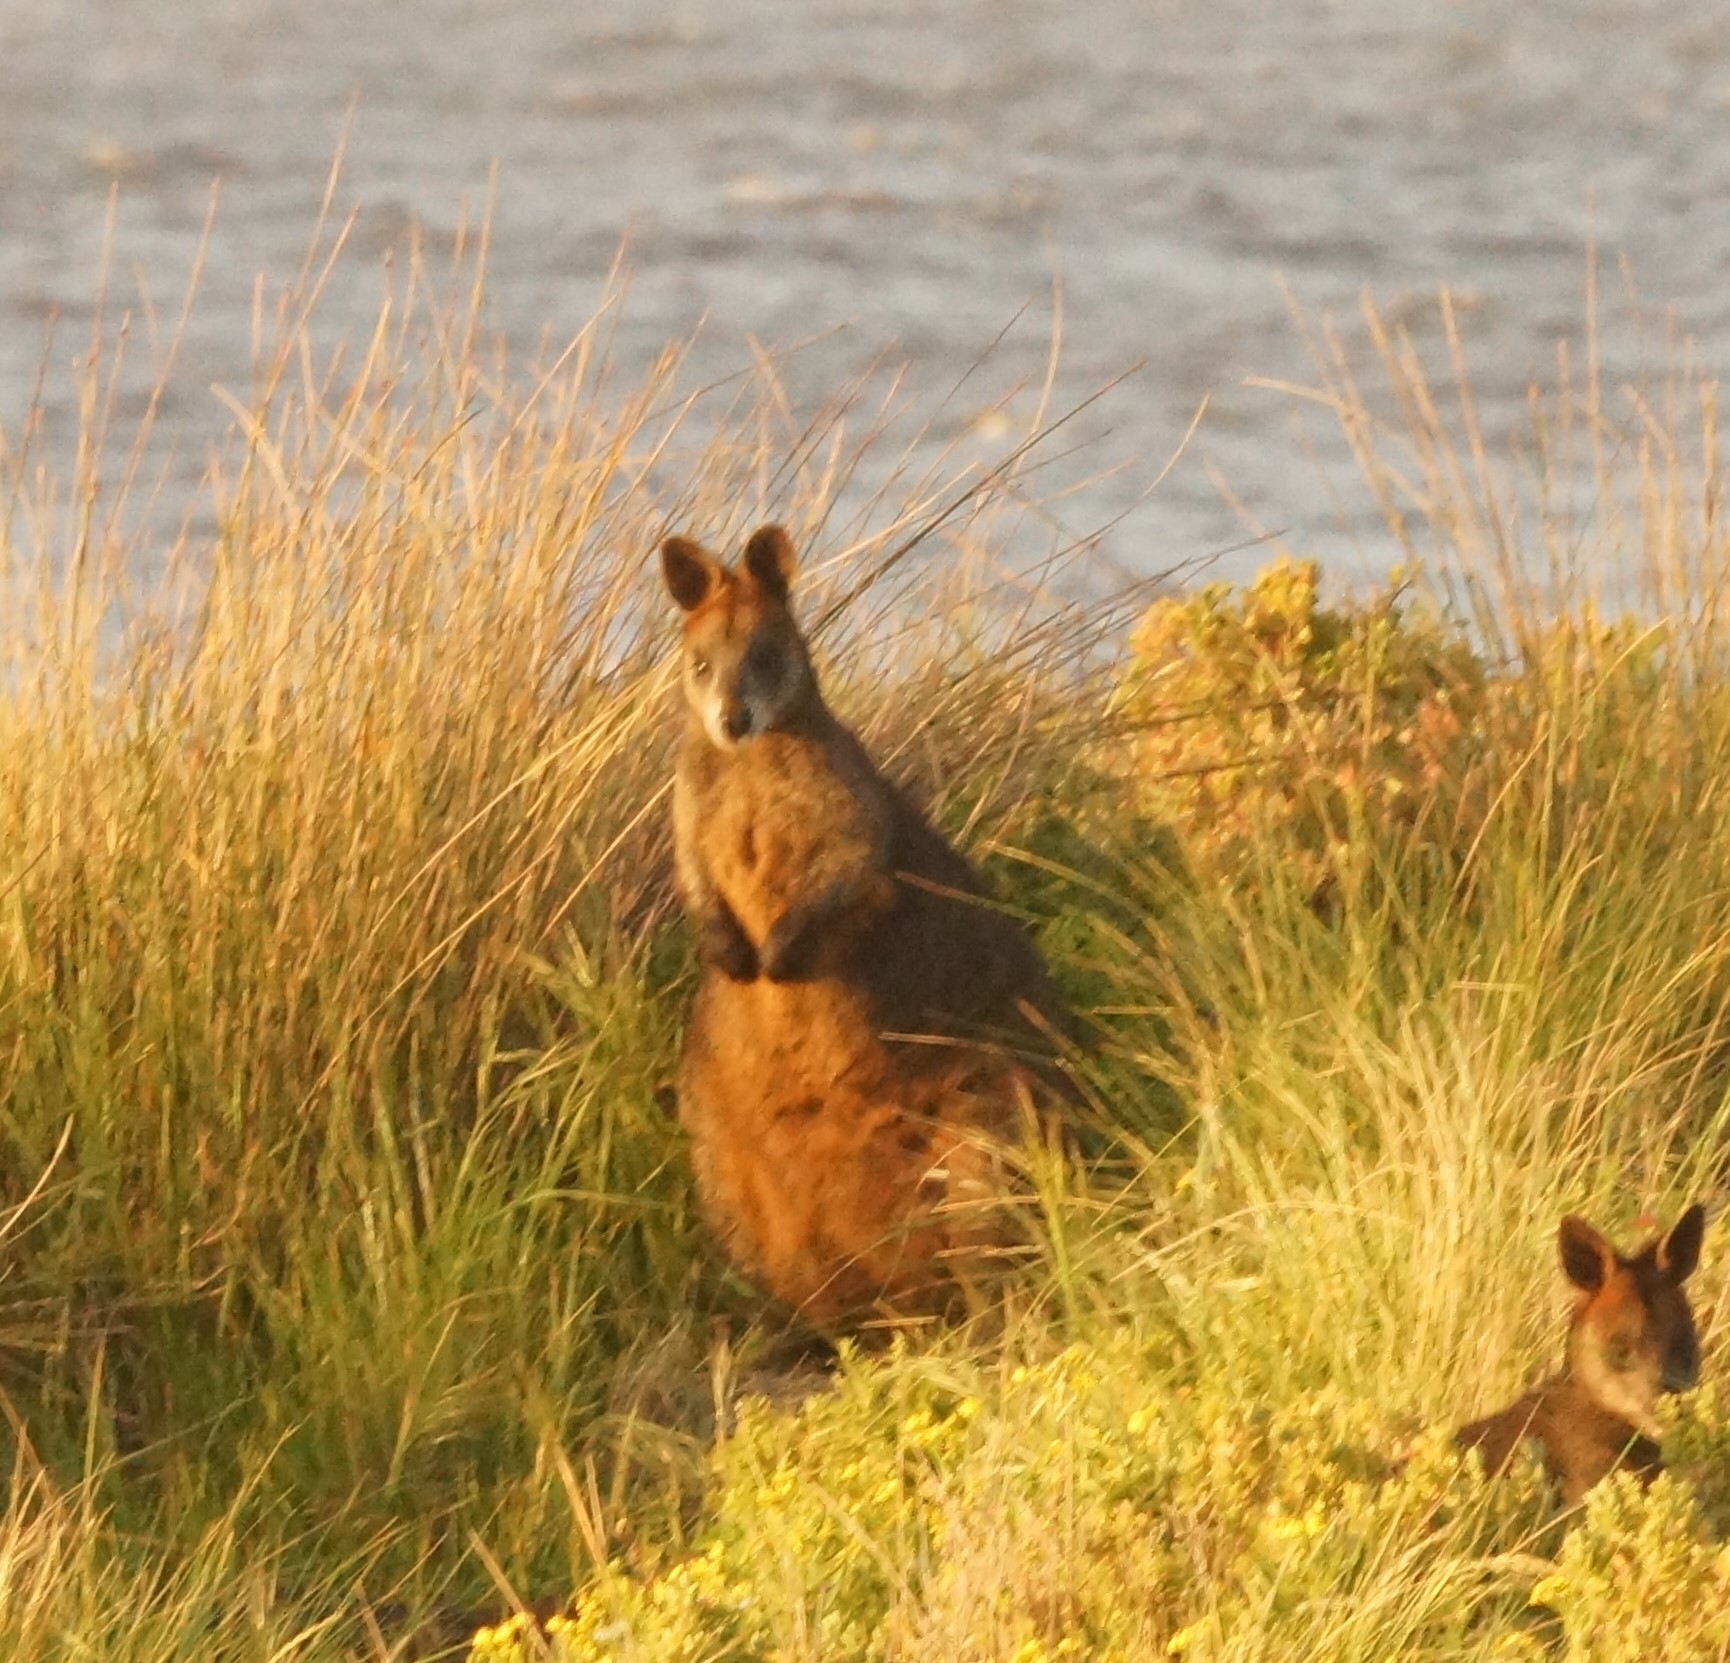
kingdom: Animalia
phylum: Chordata
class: Mammalia
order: Diprotodontia
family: Macropodidae
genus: Wallabia
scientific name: Wallabia bicolor
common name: Swamp wallaby
